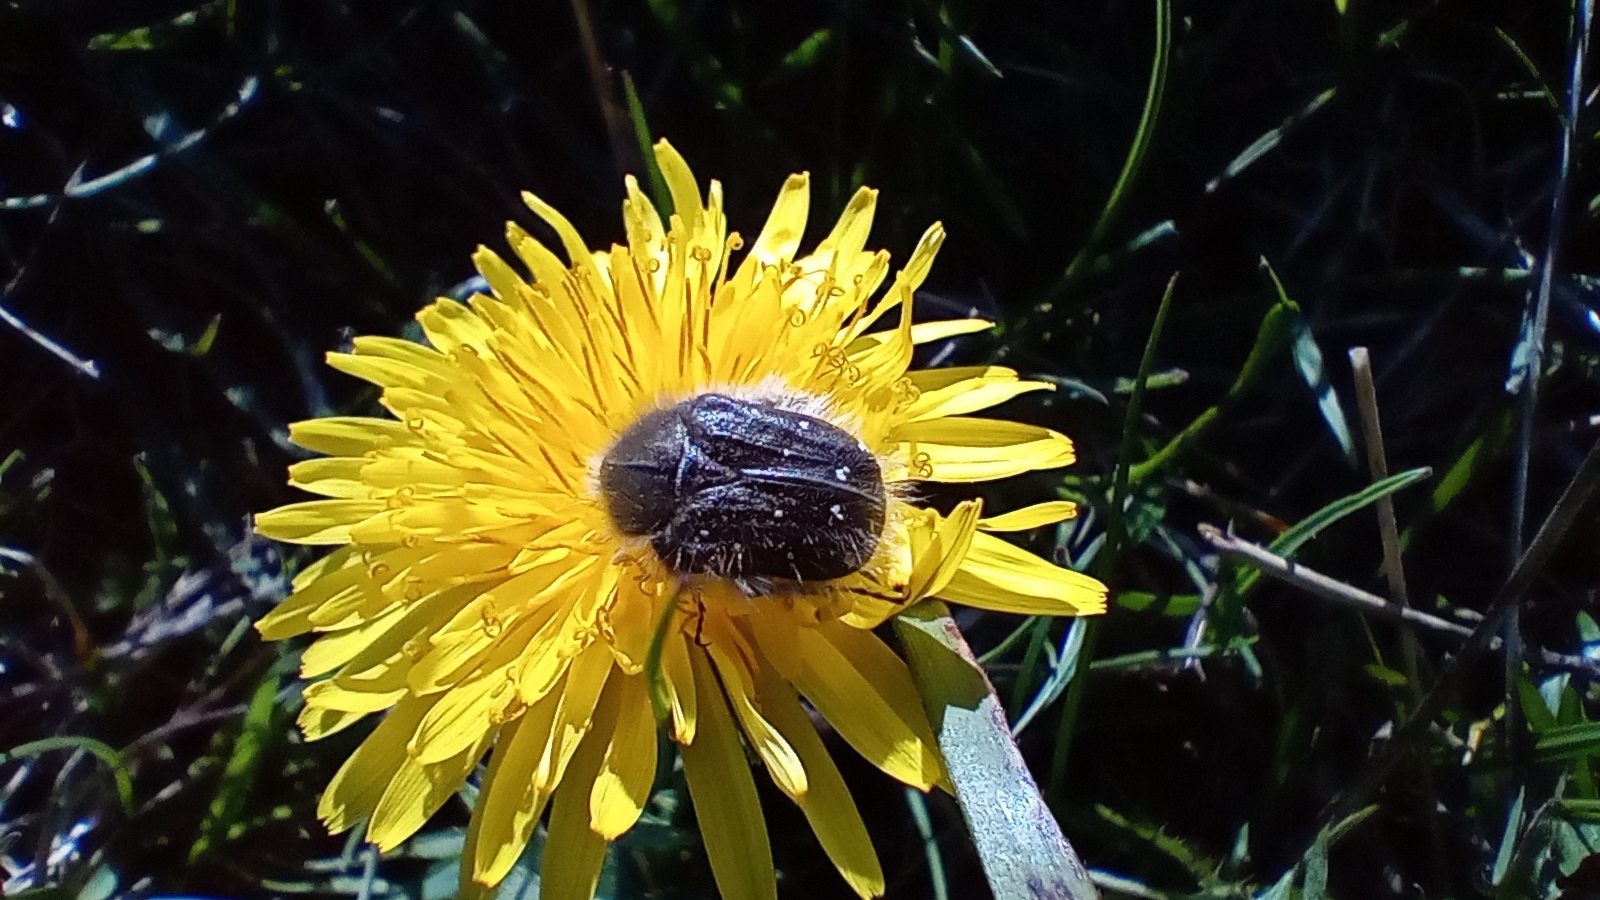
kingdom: Animalia
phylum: Arthropoda
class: Insecta
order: Coleoptera
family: Scarabaeidae
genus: Tropinota
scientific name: Tropinota hirta
